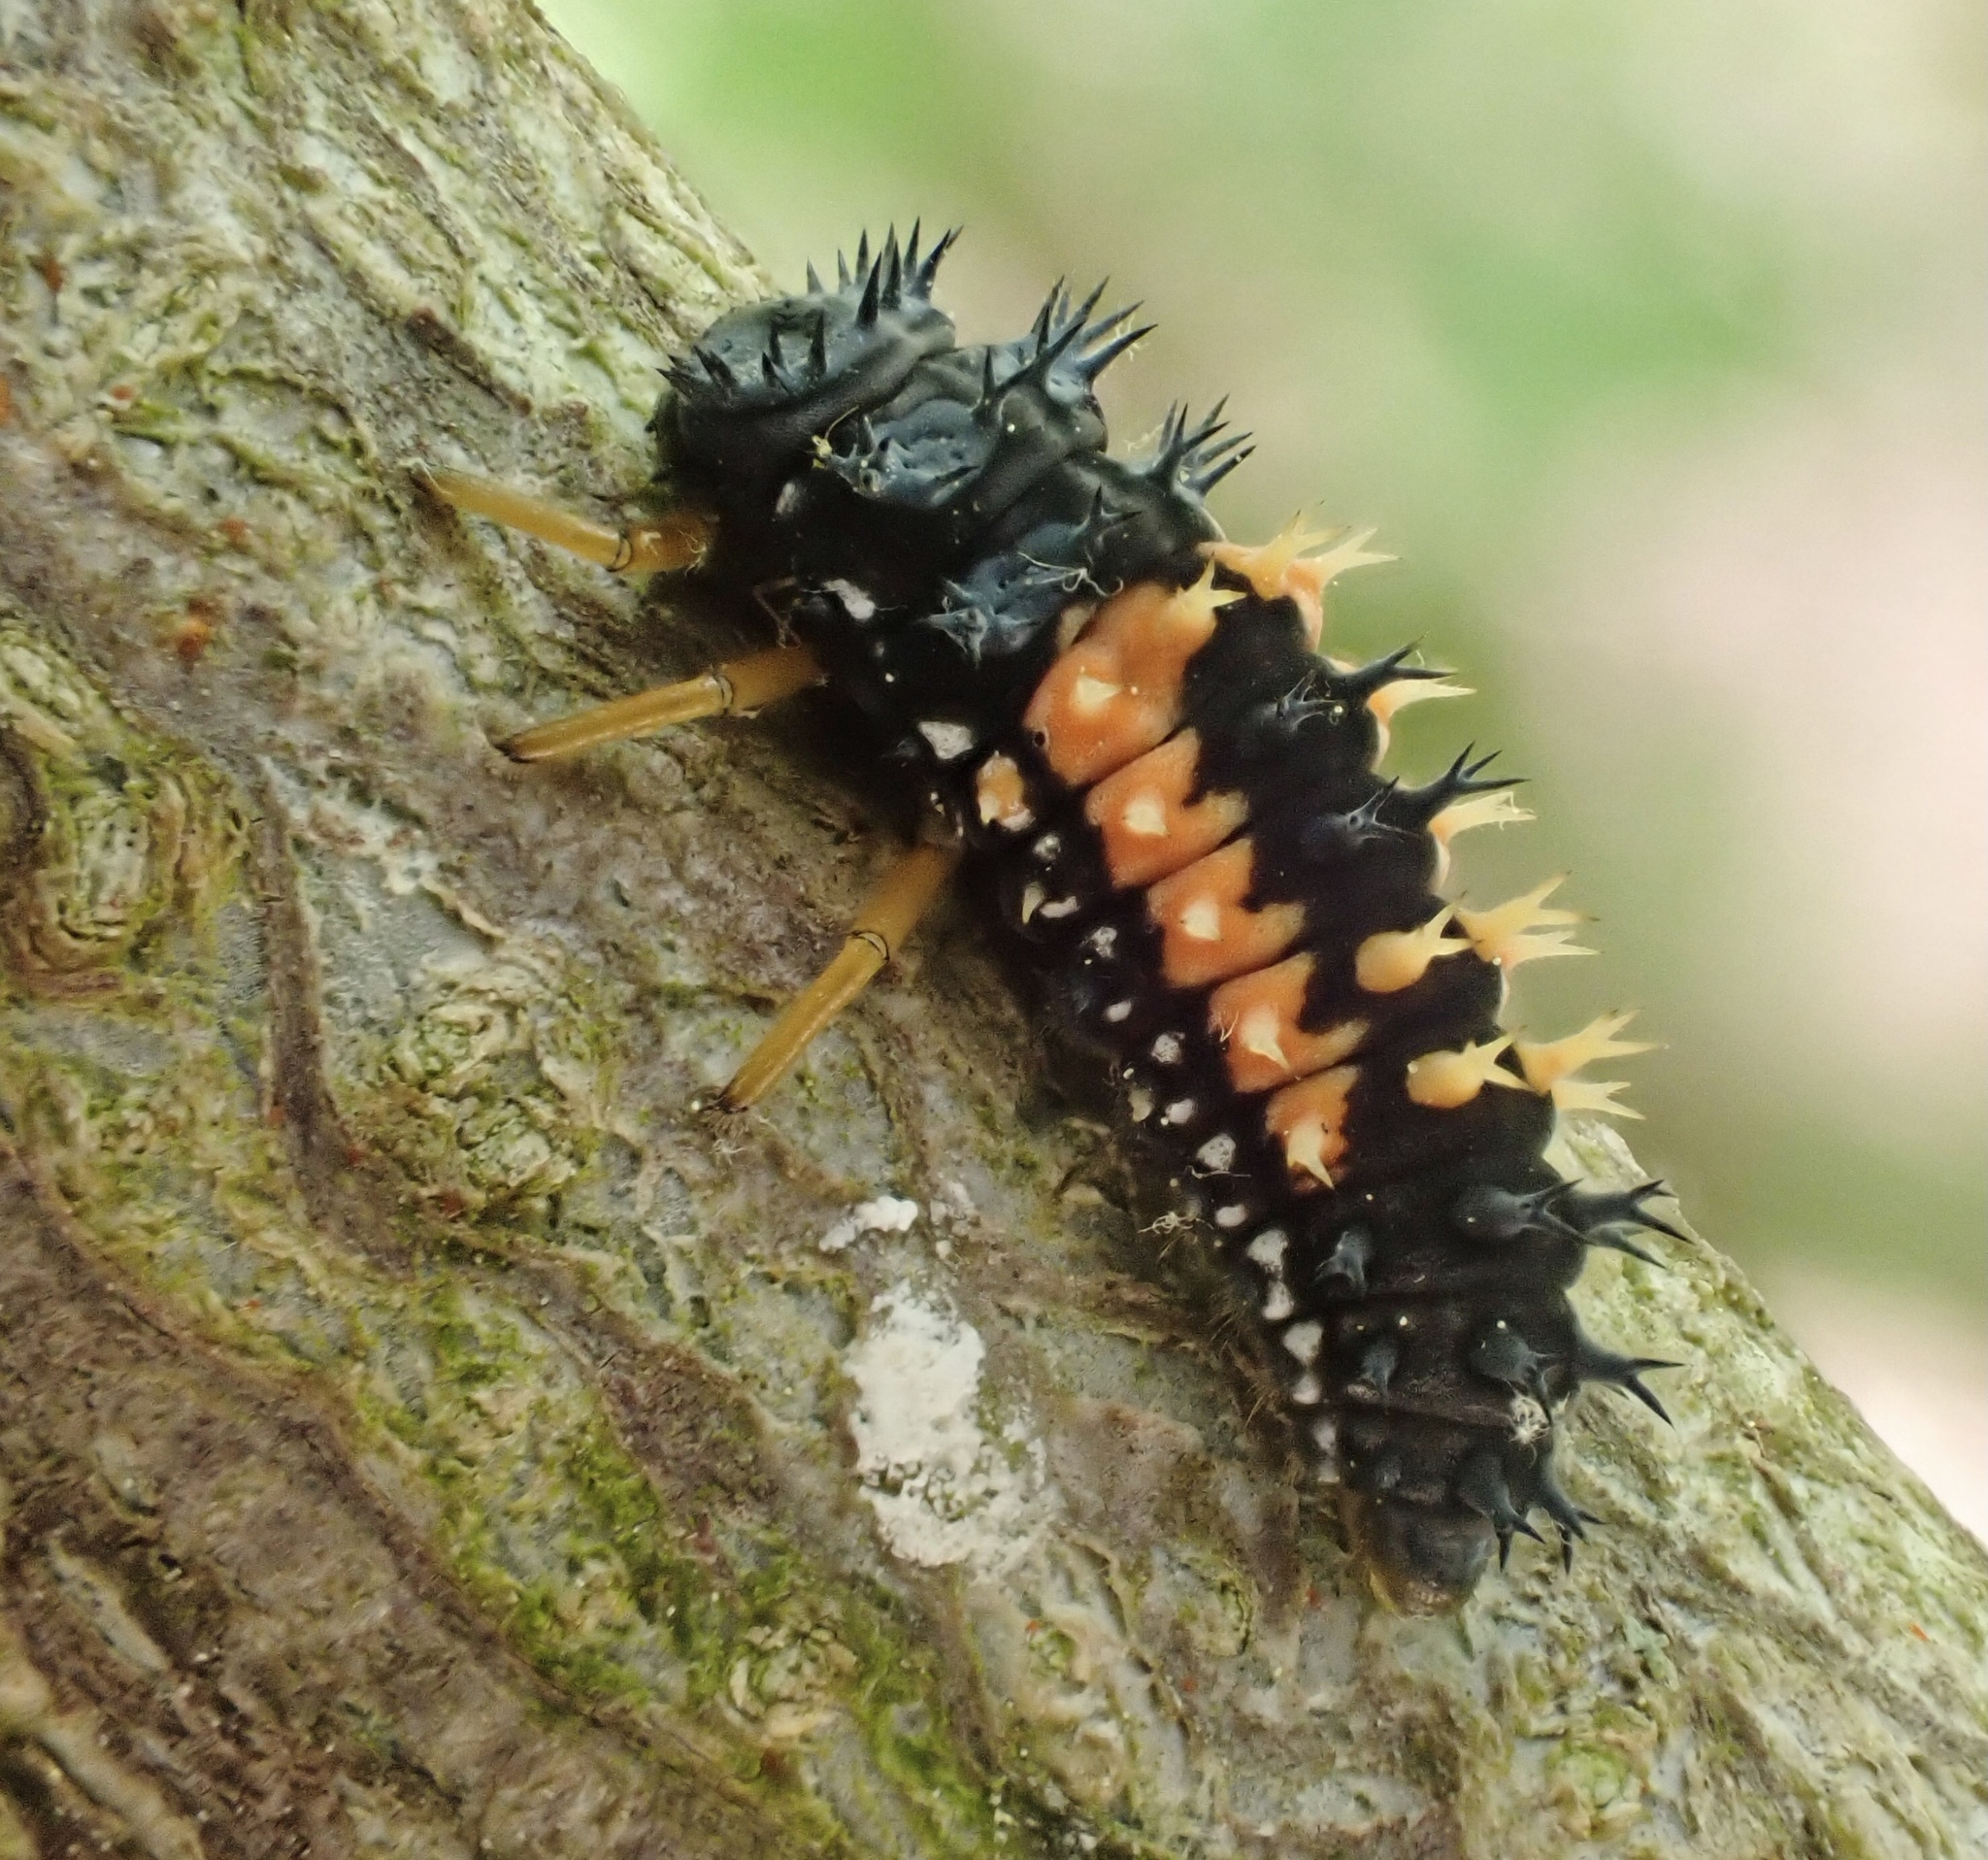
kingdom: Animalia
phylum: Arthropoda
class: Insecta
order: Coleoptera
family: Coccinellidae
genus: Harmonia
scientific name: Harmonia axyridis
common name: Harlequin ladybird
